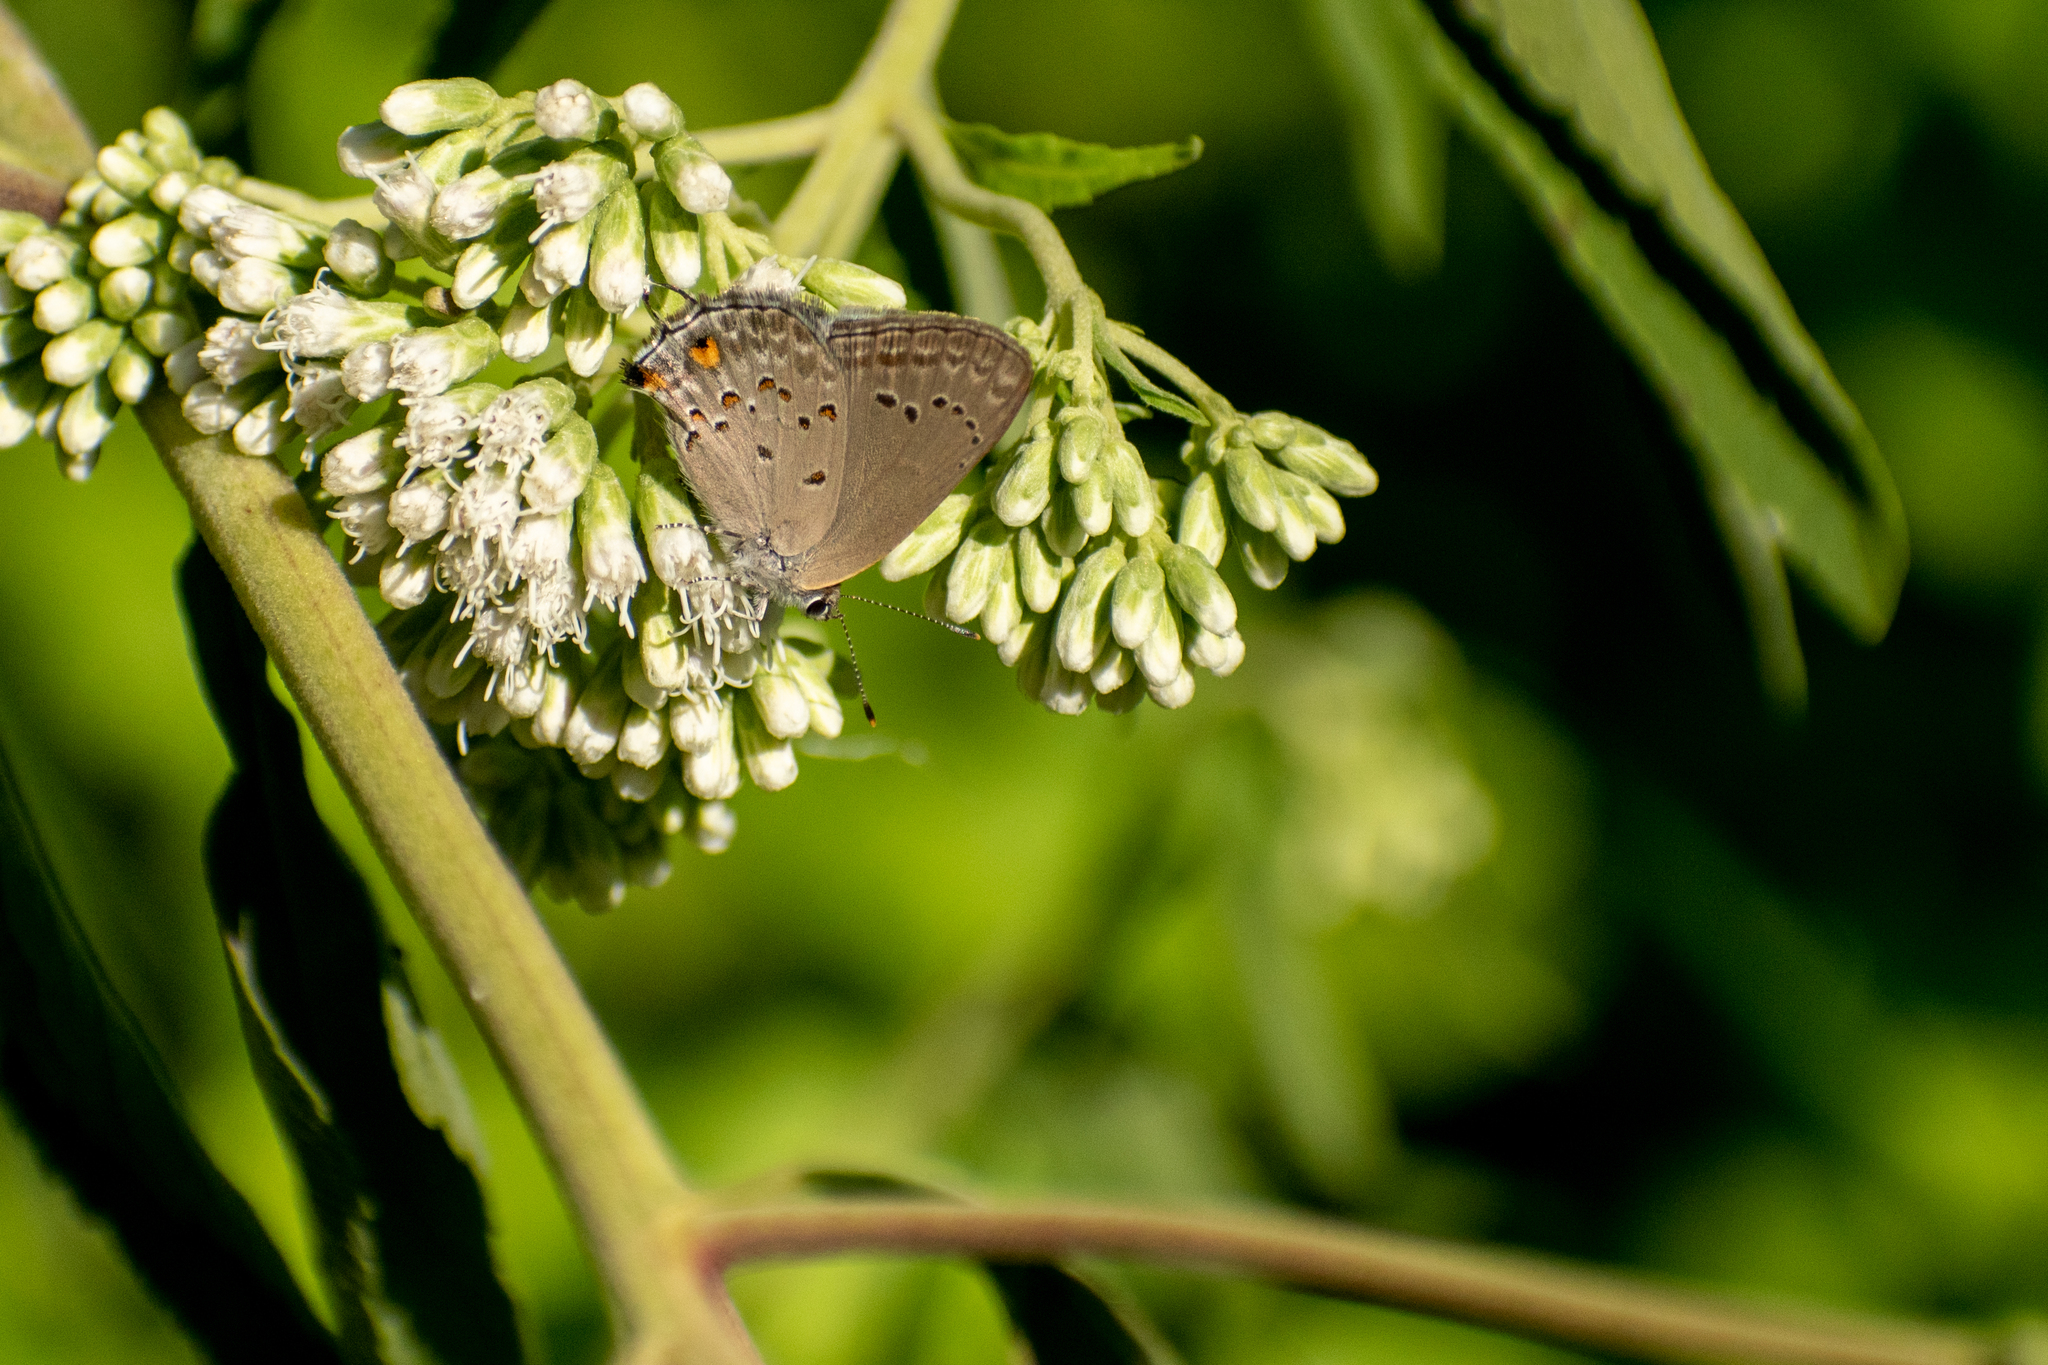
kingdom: Animalia
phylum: Arthropoda
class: Insecta
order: Lepidoptera
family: Lycaenidae
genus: Strymon
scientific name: Strymon eurytulus
